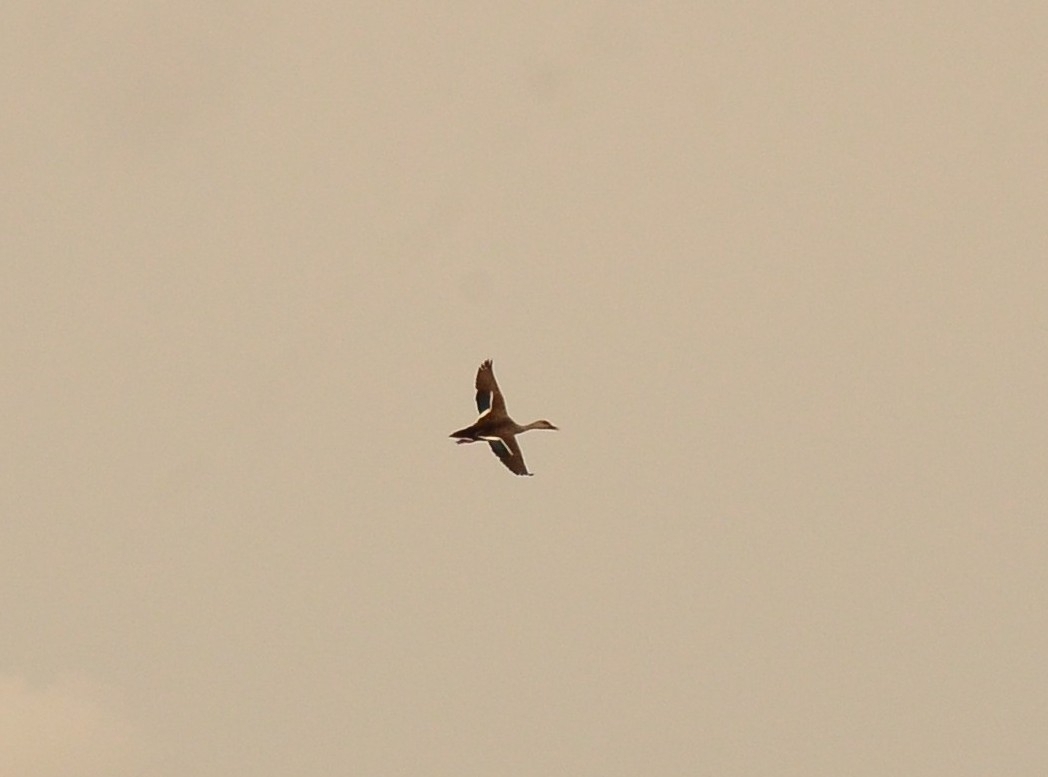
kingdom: Animalia
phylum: Chordata
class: Aves
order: Anseriformes
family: Anatidae
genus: Anas
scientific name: Anas poecilorhyncha
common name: Indian spot-billed duck
